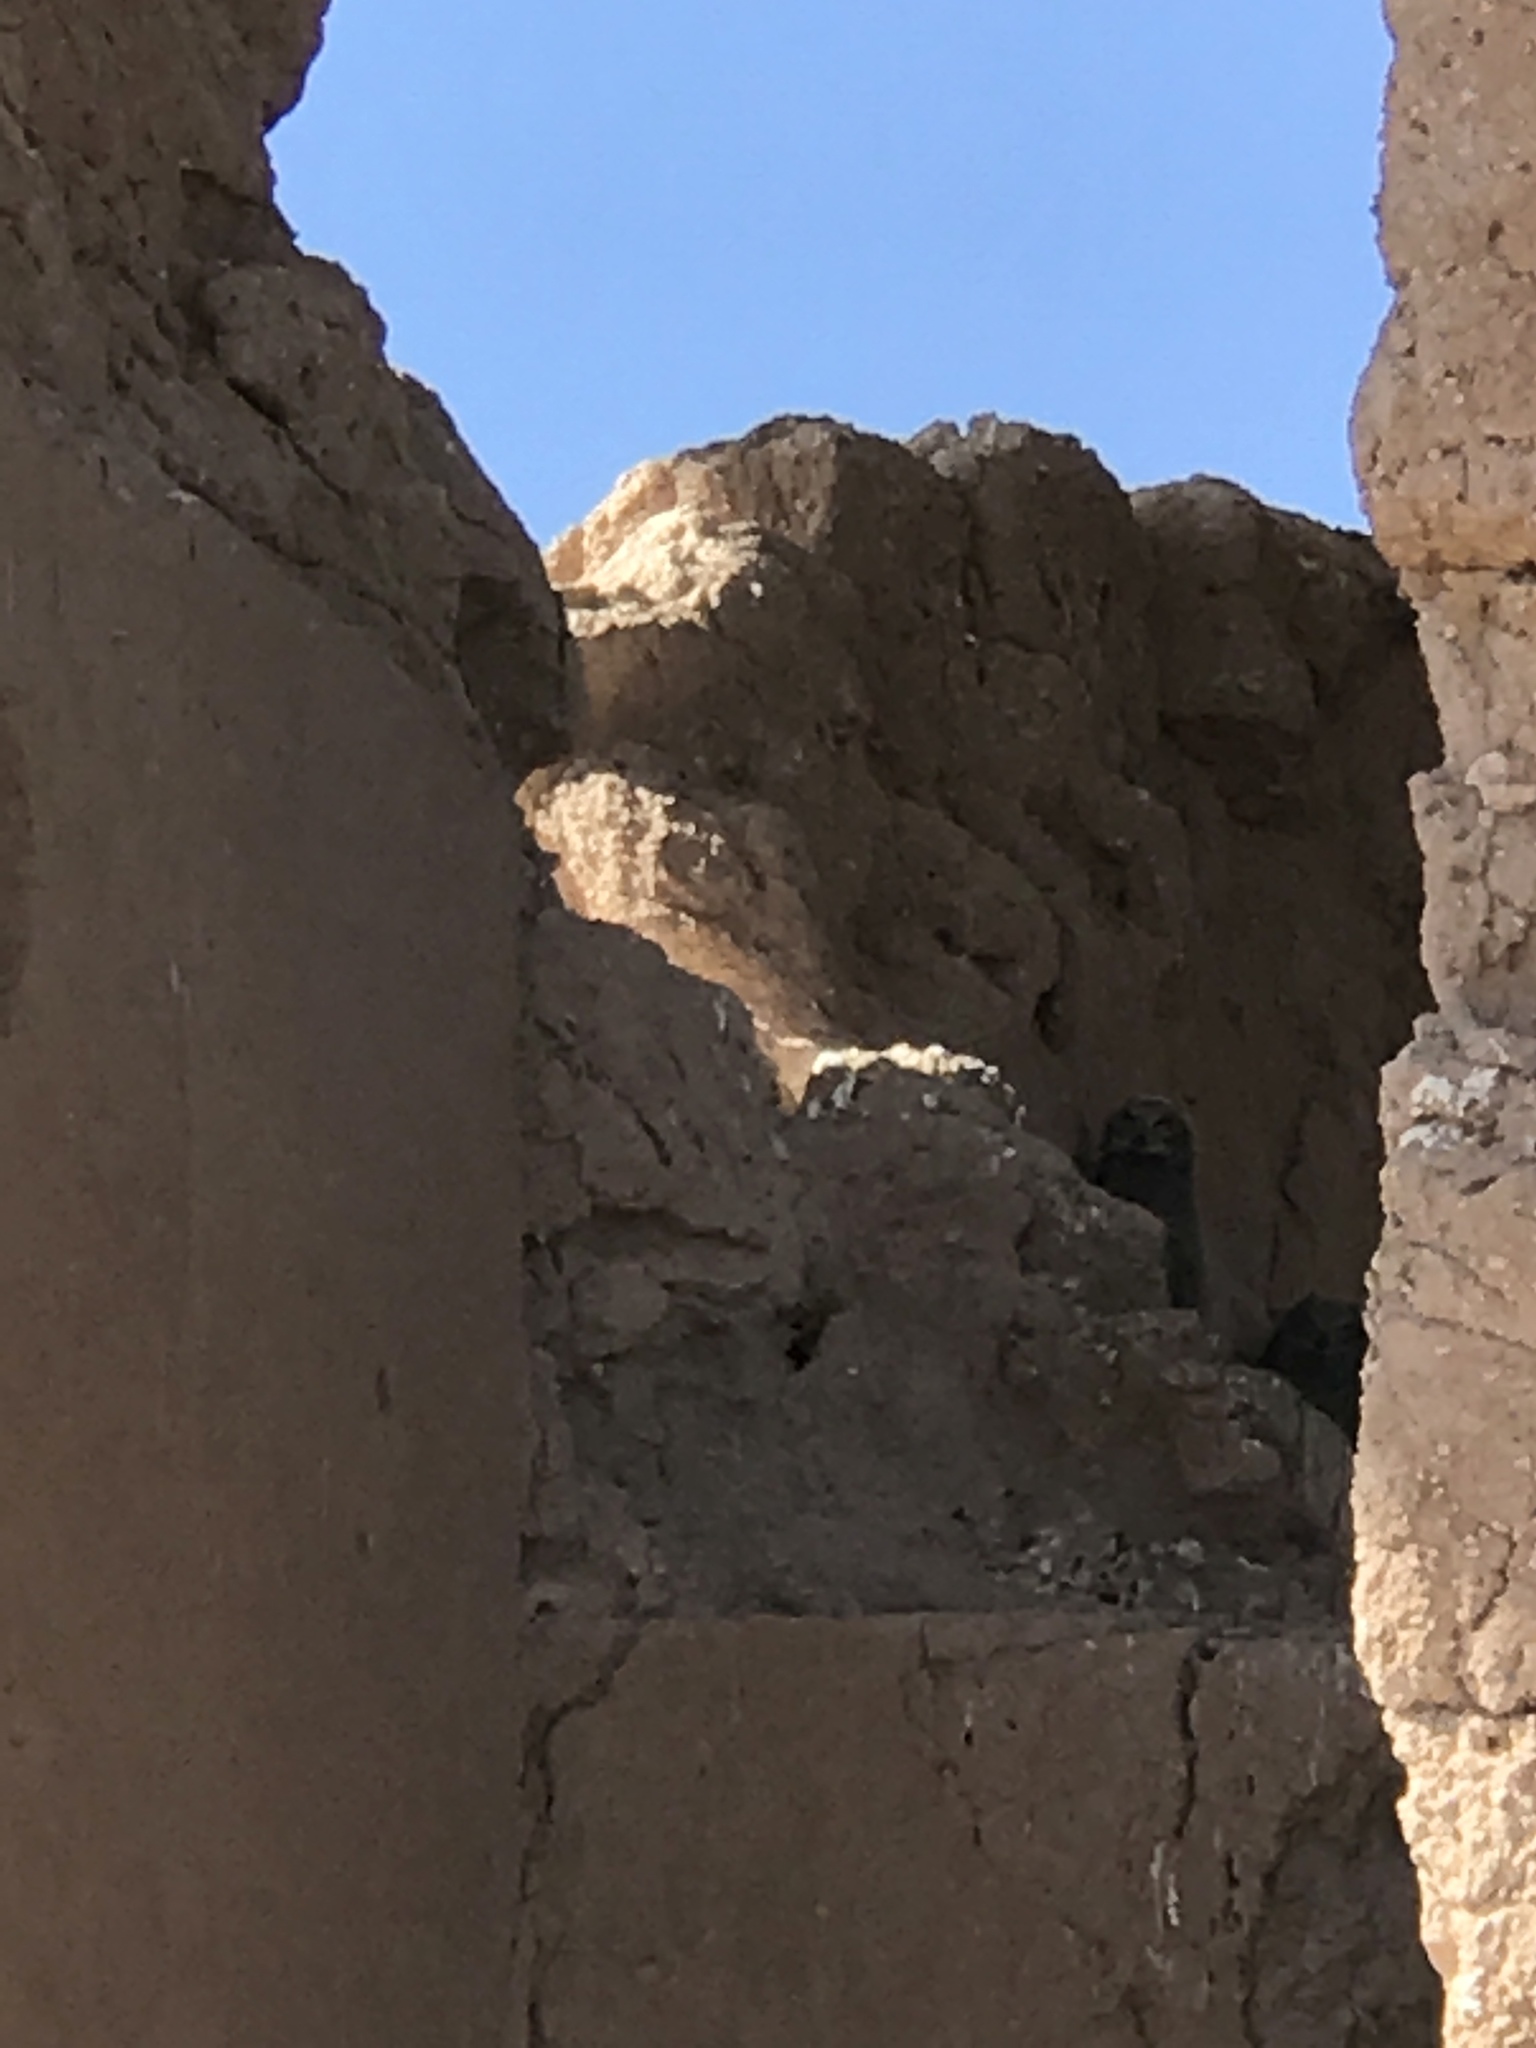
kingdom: Animalia
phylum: Chordata
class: Aves
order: Strigiformes
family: Strigidae
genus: Bubo
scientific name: Bubo virginianus
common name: Great horned owl
